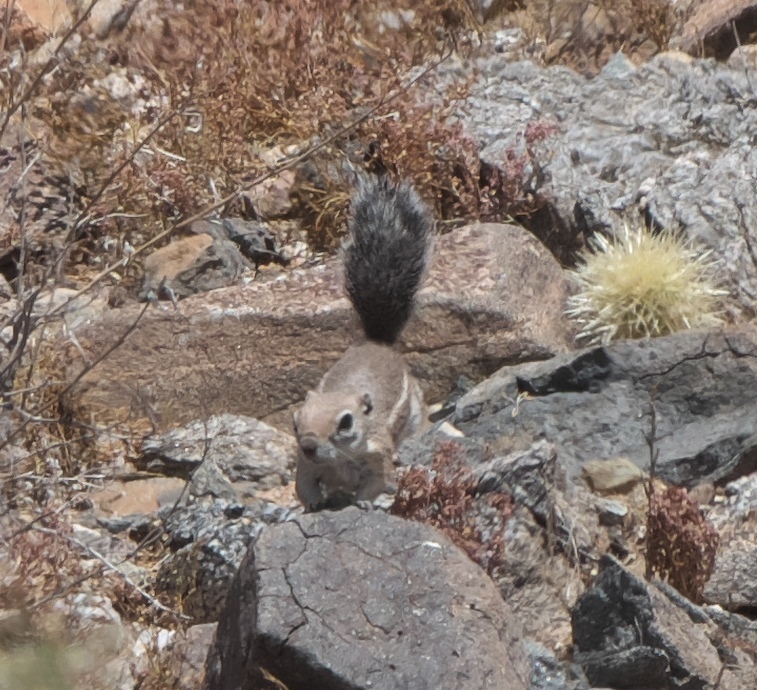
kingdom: Animalia
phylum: Chordata
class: Mammalia
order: Rodentia
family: Sciuridae
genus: Ammospermophilus
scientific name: Ammospermophilus harrisii
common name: Harris's antelope squirrel
